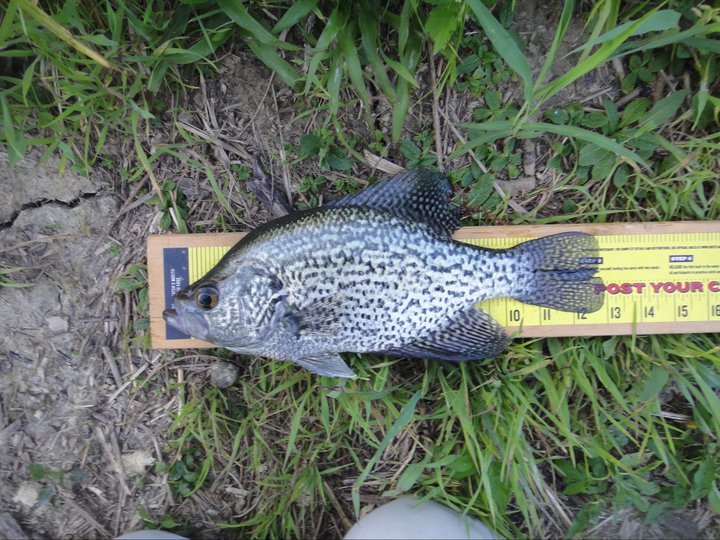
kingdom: Animalia
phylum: Chordata
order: Perciformes
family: Centrarchidae
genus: Pomoxis
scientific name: Pomoxis nigromaculatus
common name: Black crappie
